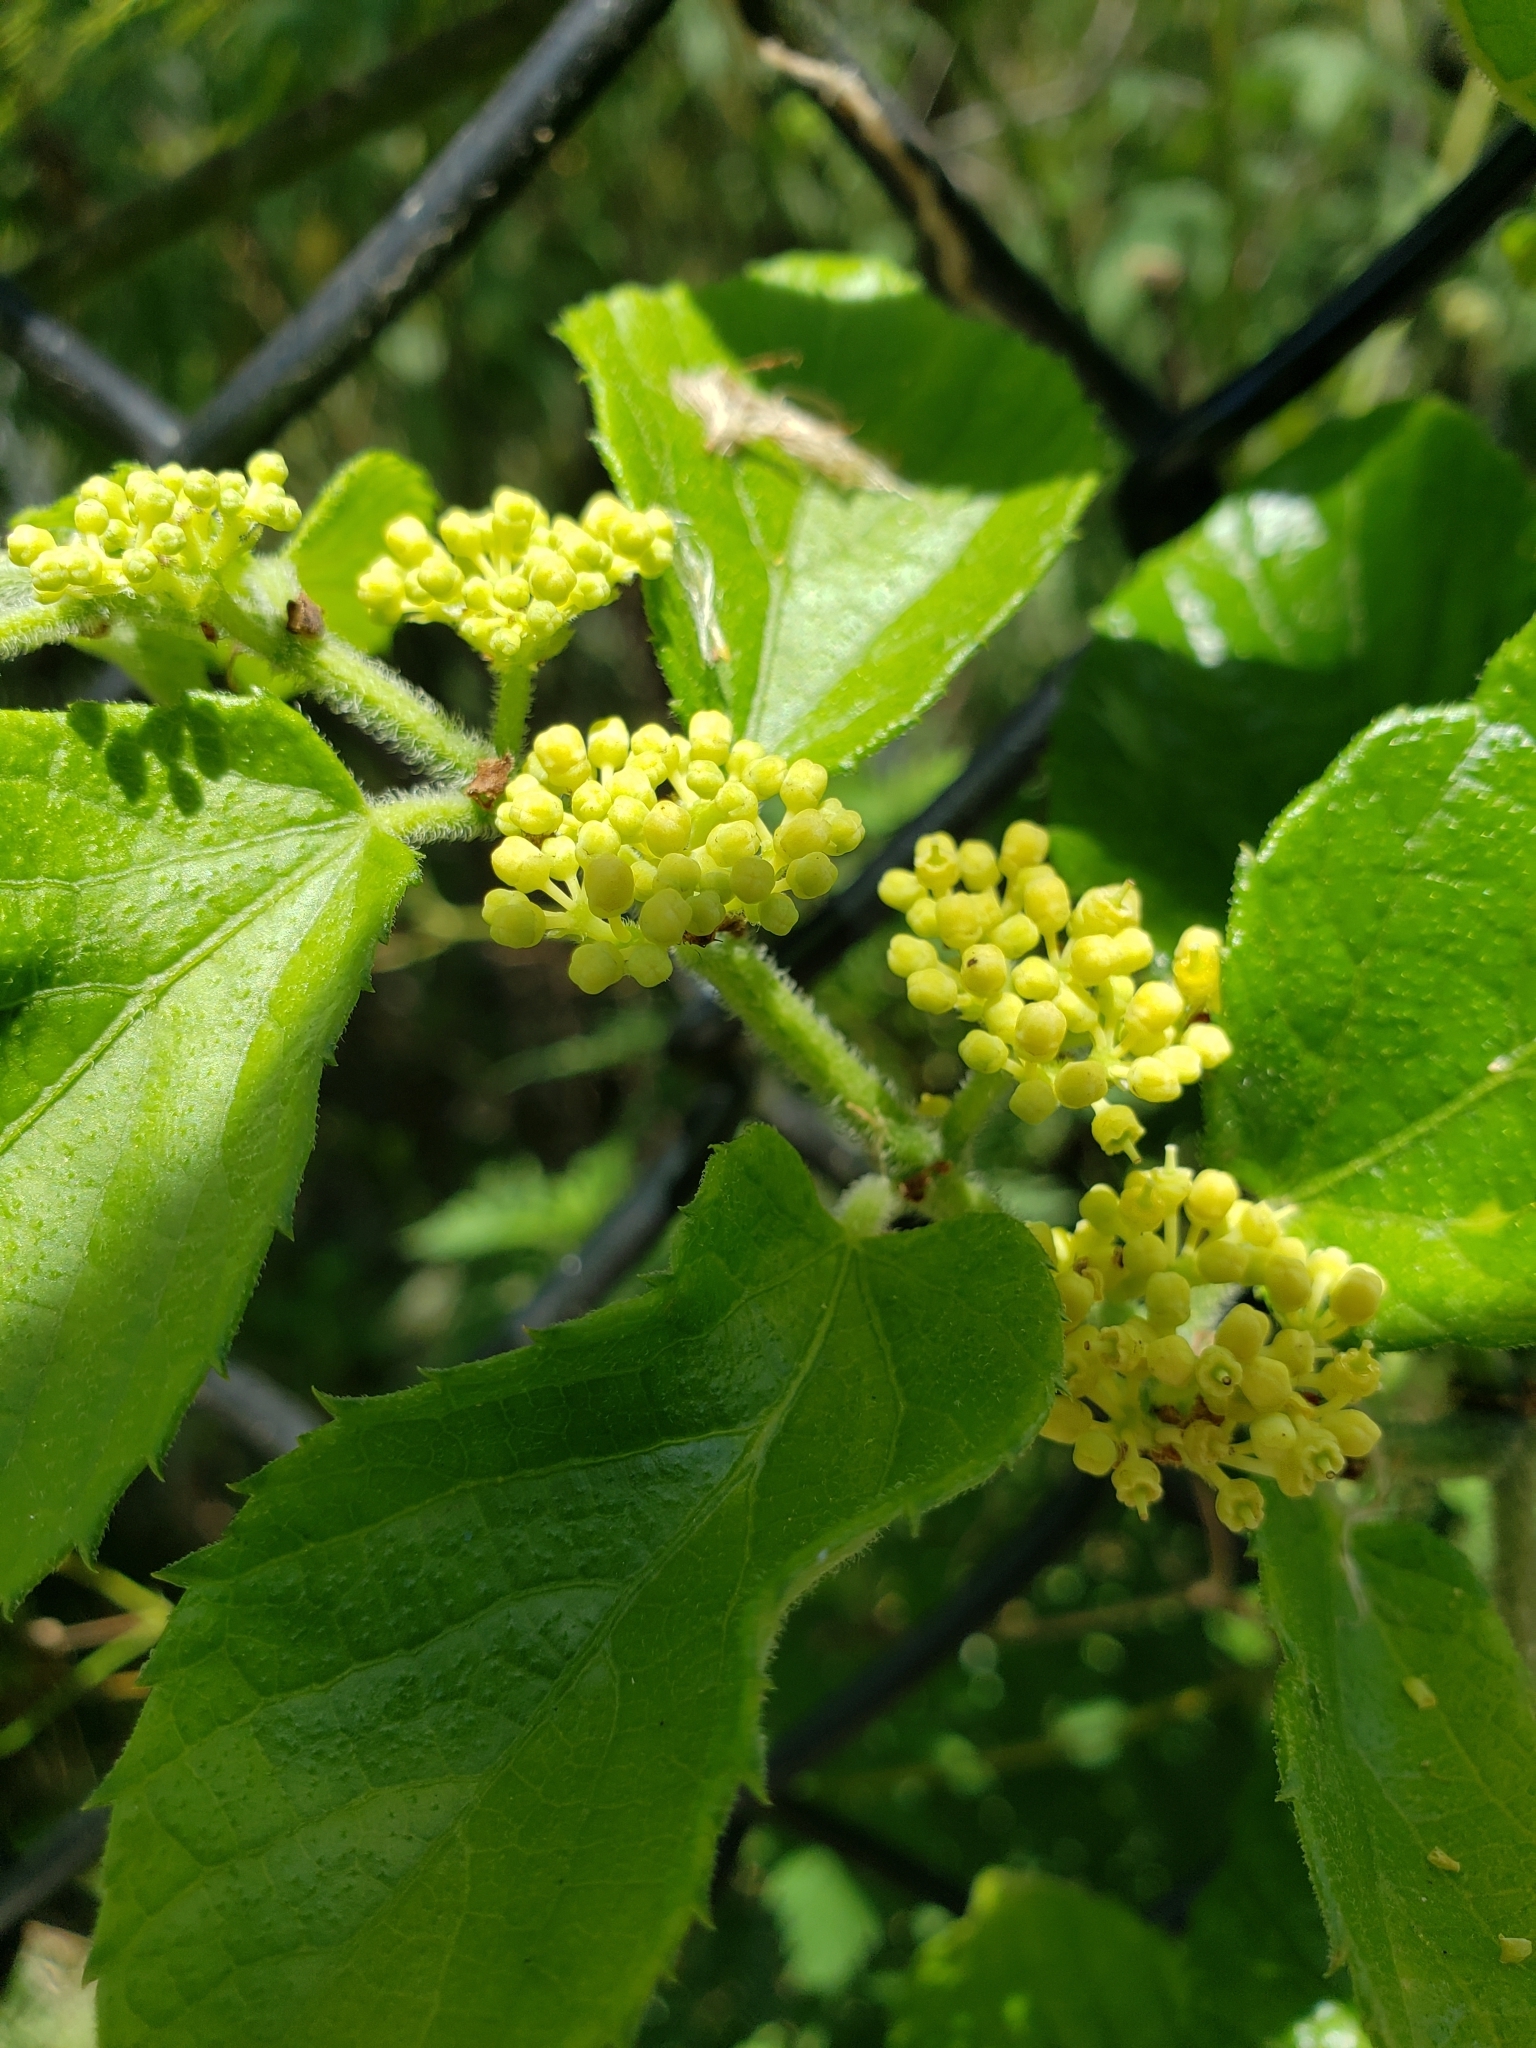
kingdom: Plantae
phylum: Tracheophyta
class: Magnoliopsida
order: Vitales
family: Vitaceae
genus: Cissus
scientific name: Cissus verticillata
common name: Princess vine
